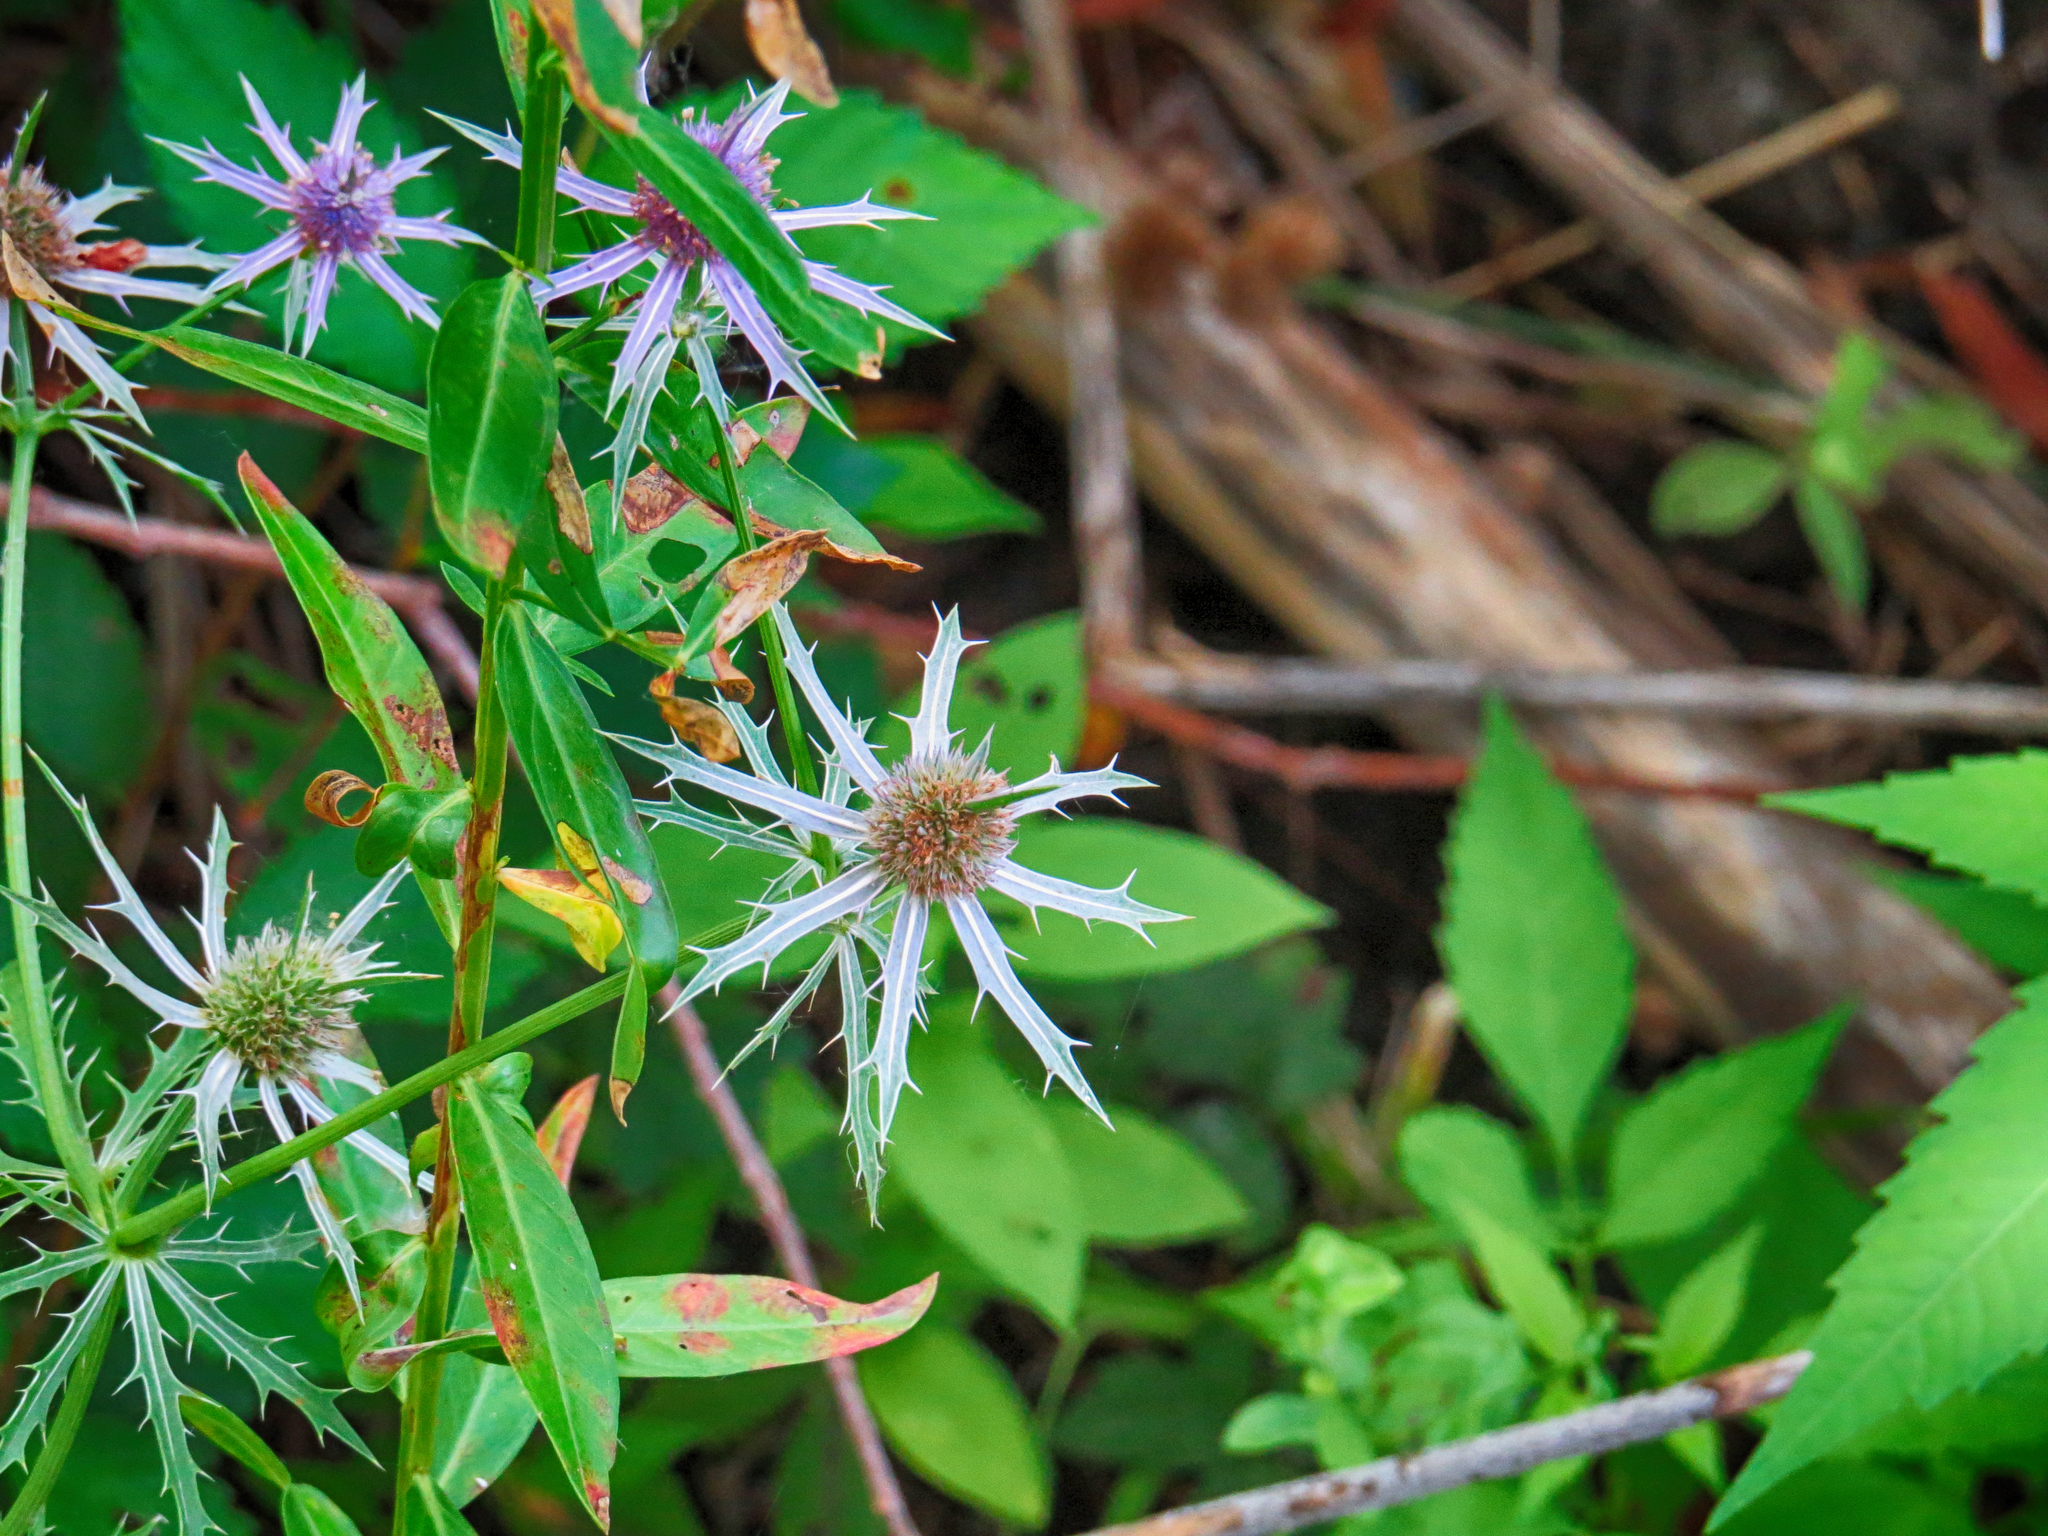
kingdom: Plantae
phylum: Tracheophyta
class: Magnoliopsida
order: Apiales
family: Apiaceae
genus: Eryngium
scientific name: Eryngium hookeri
